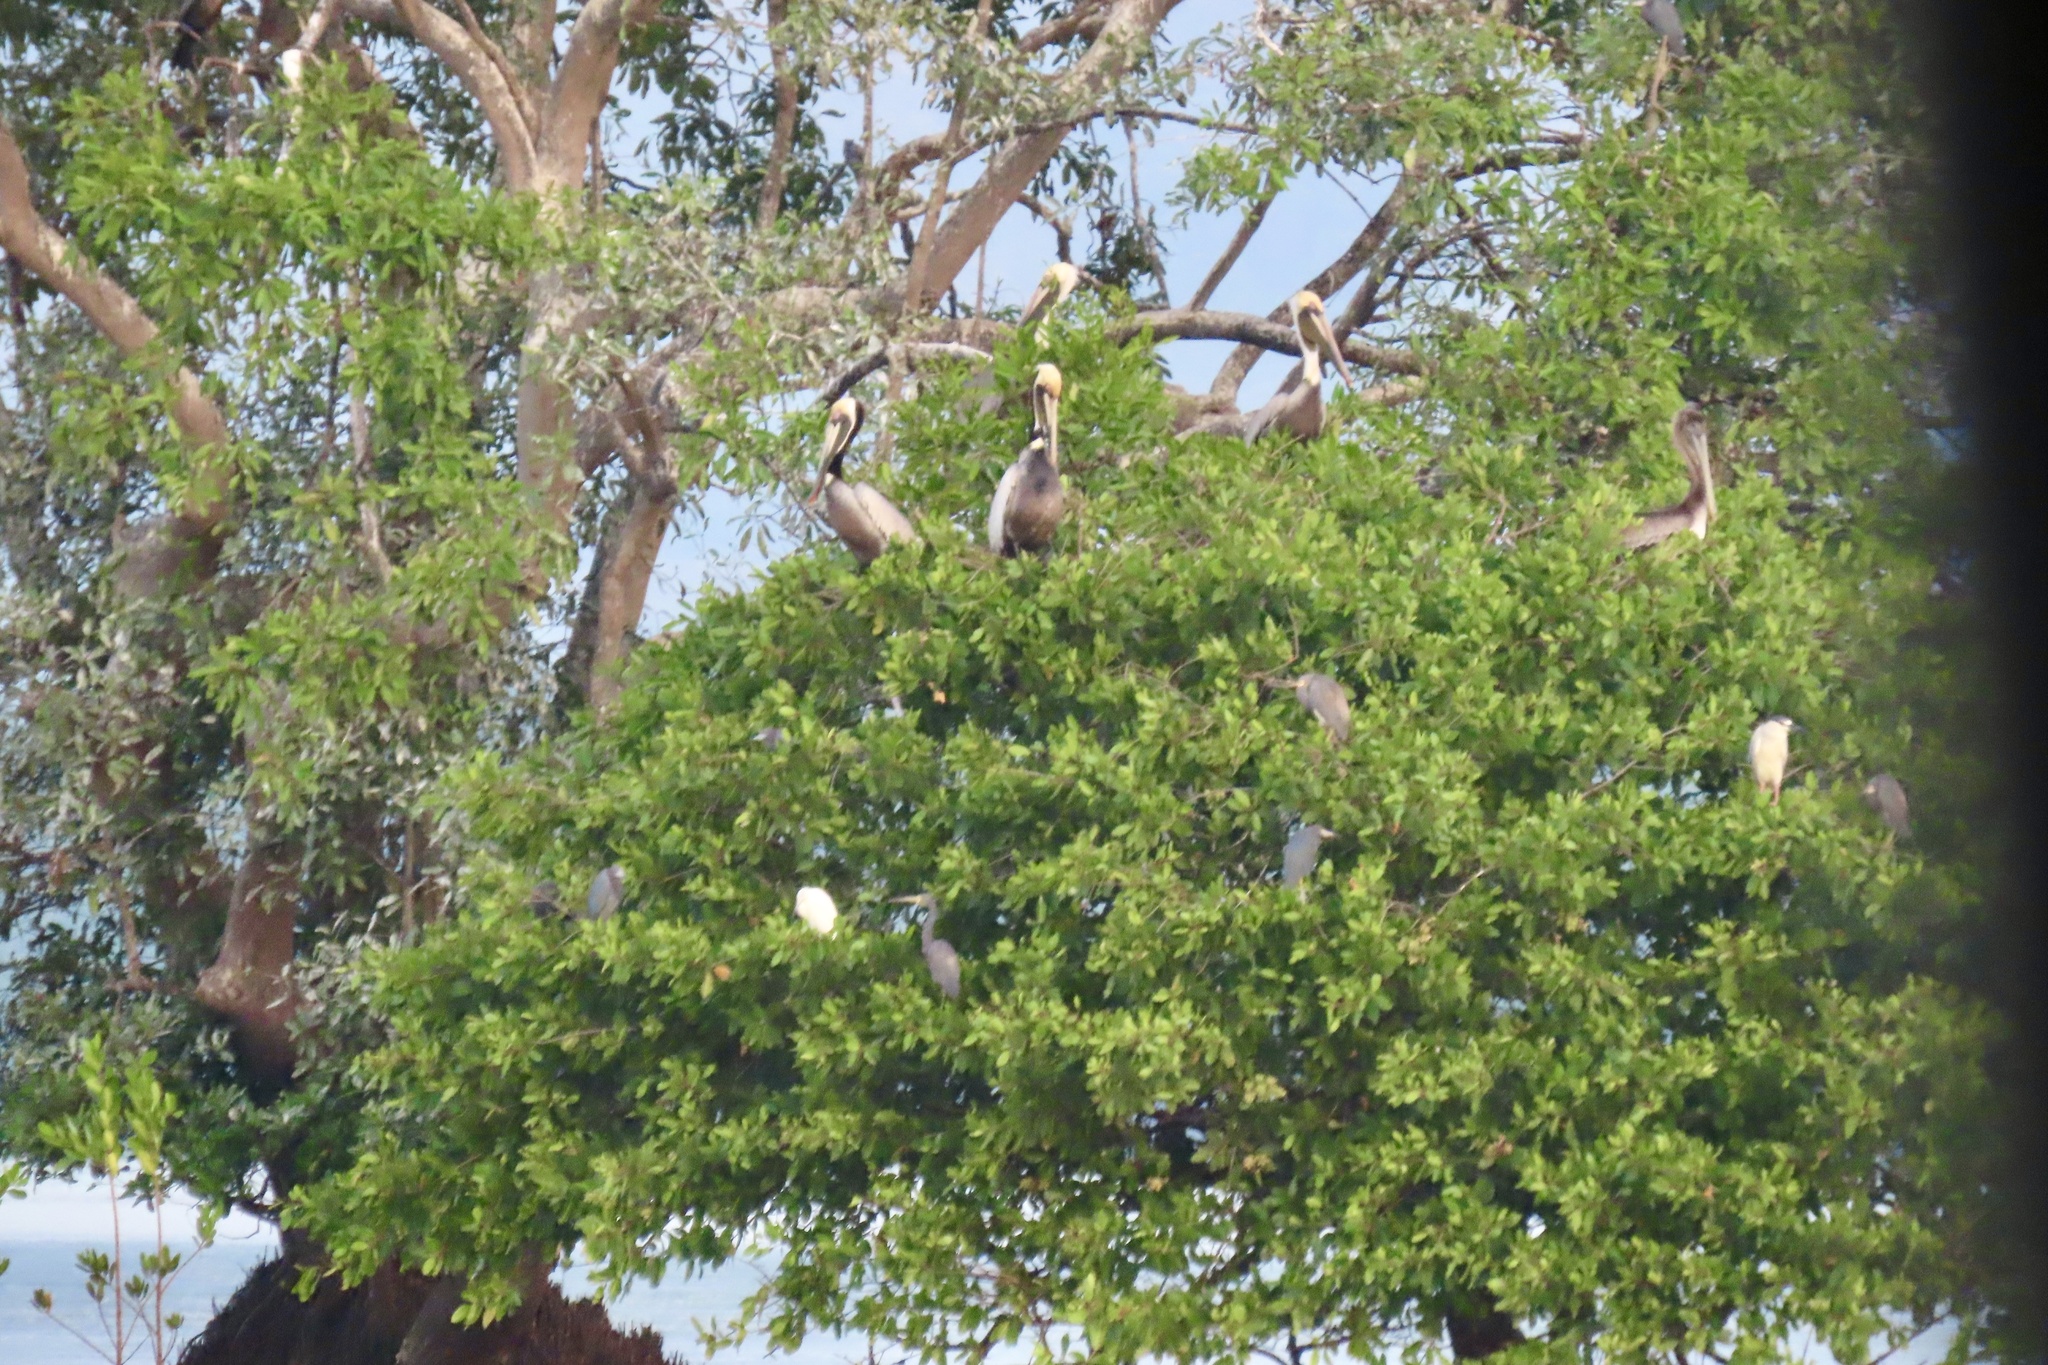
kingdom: Animalia
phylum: Chordata
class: Aves
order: Pelecaniformes
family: Ardeidae
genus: Nycticorax
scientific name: Nycticorax nycticorax
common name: Black-crowned night heron
